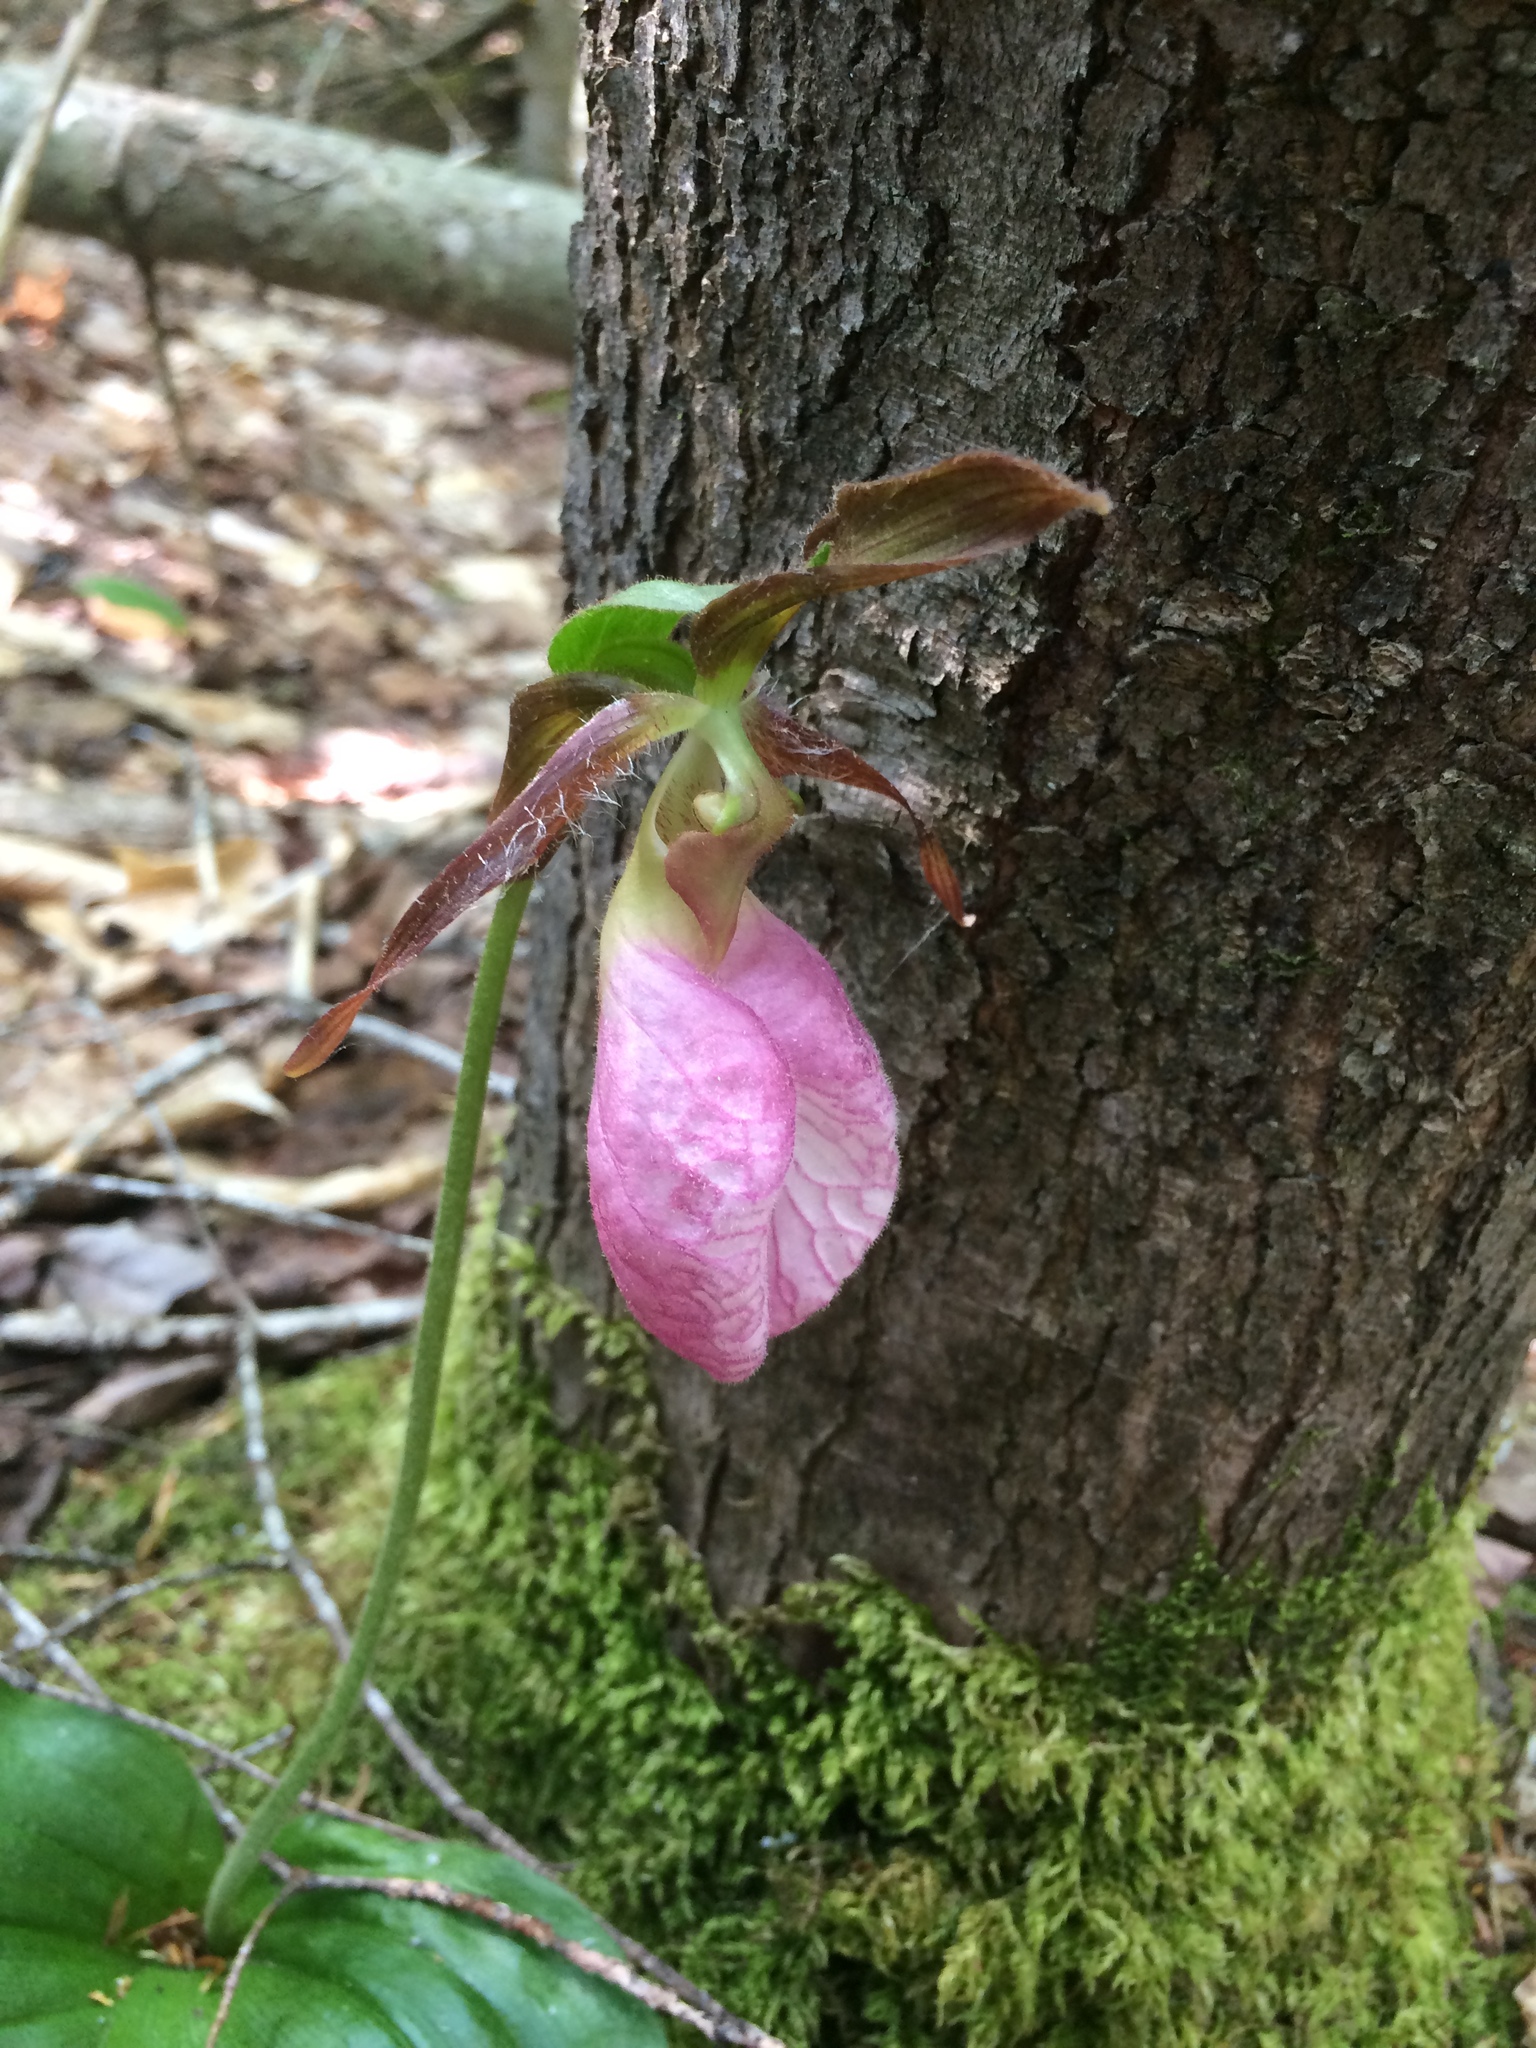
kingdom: Plantae
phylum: Tracheophyta
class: Liliopsida
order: Asparagales
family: Orchidaceae
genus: Cypripedium
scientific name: Cypripedium acaule
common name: Pink lady's-slipper
